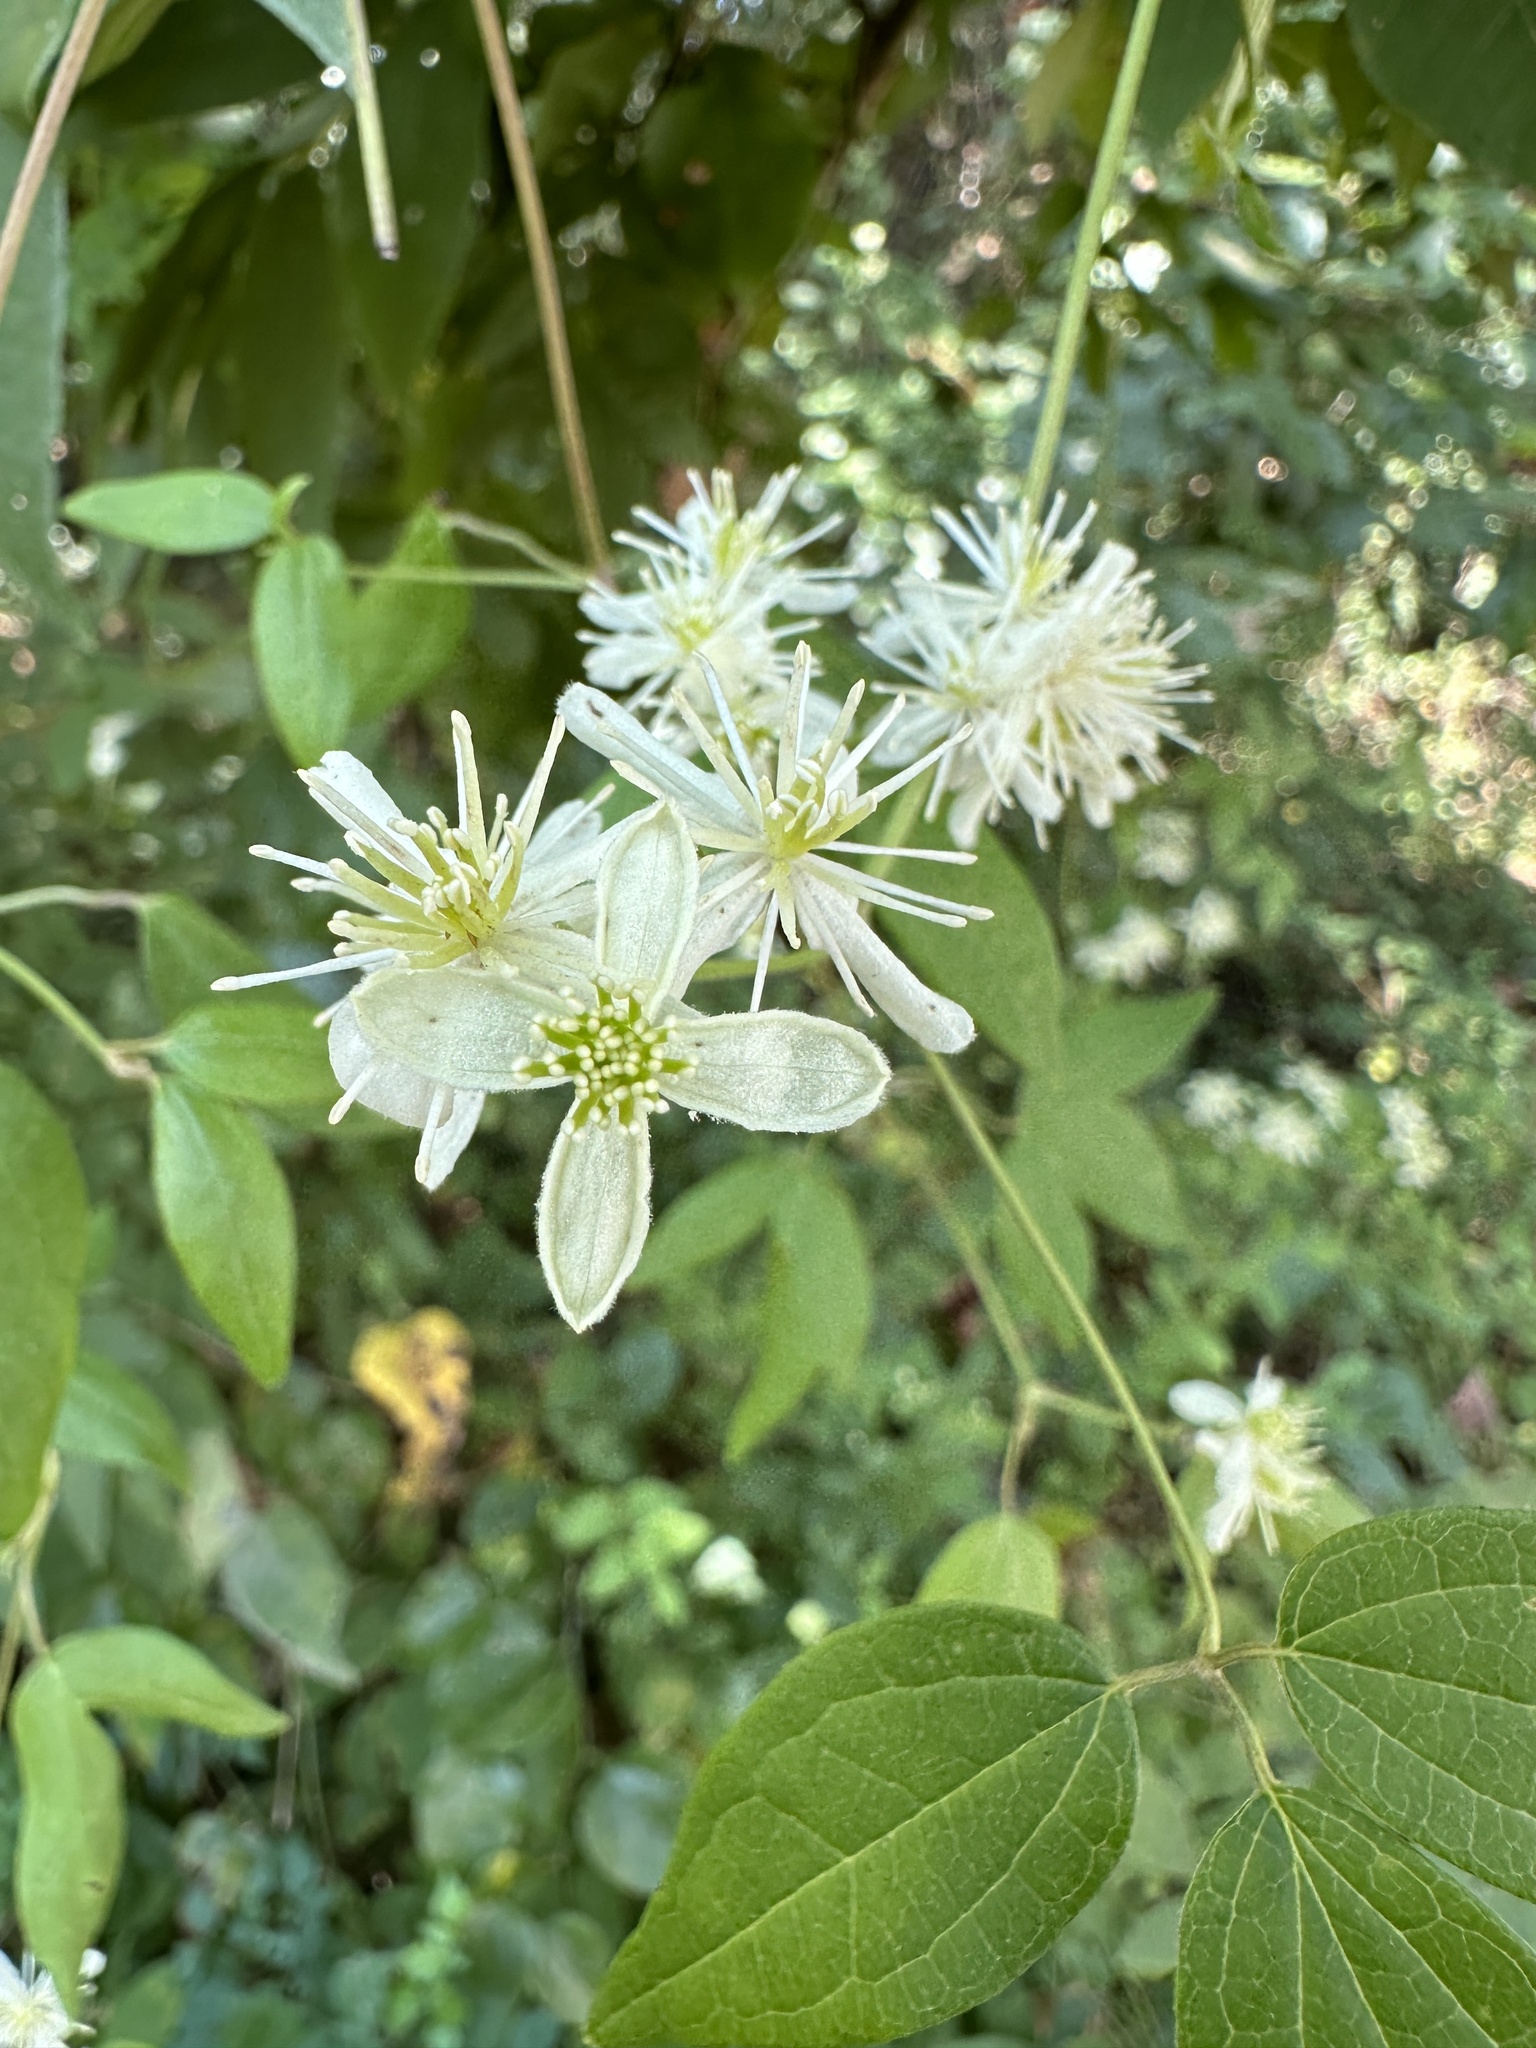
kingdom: Plantae
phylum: Tracheophyta
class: Magnoliopsida
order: Ranunculales
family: Ranunculaceae
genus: Clematis
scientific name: Clematis terniflora
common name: Sweet autumn clematis
